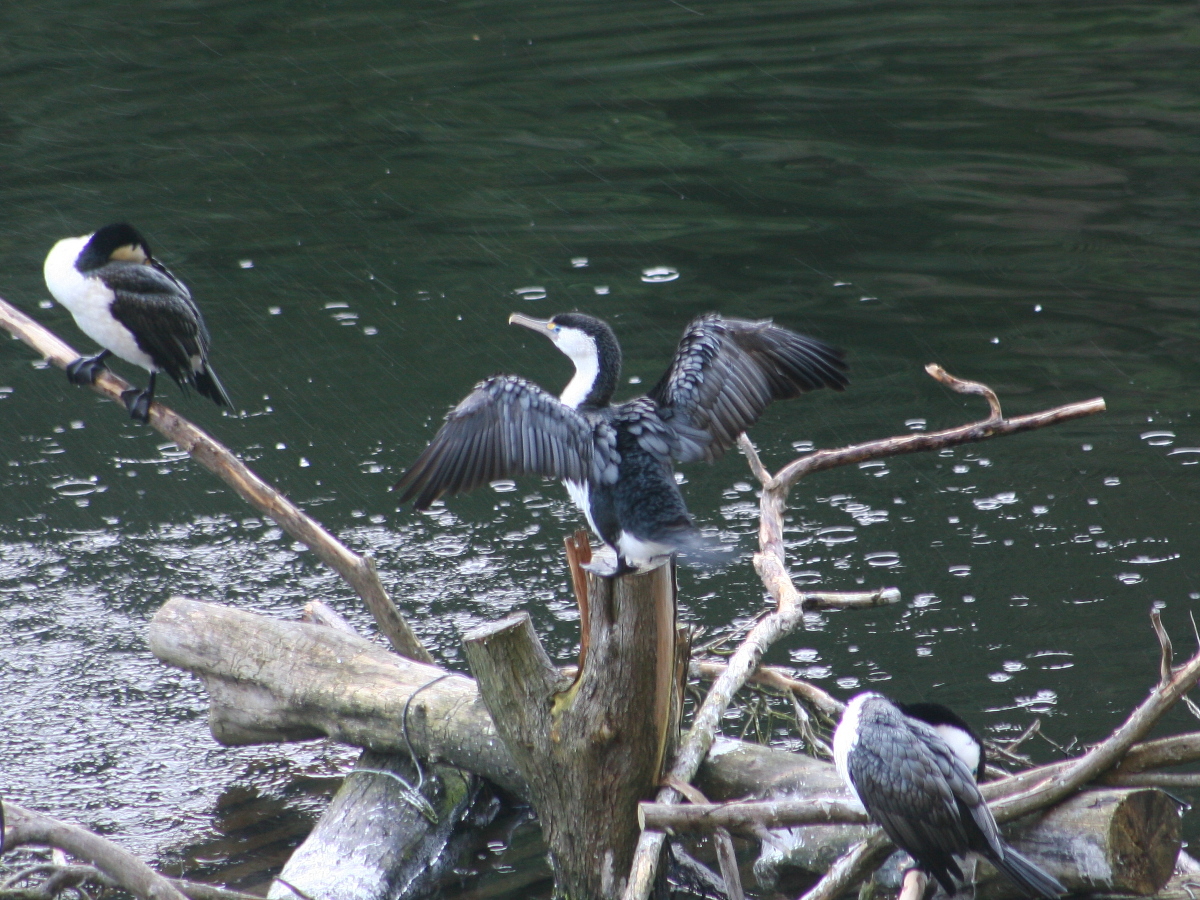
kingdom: Animalia
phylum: Chordata
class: Aves
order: Suliformes
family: Phalacrocoracidae
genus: Phalacrocorax
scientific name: Phalacrocorax varius
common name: Pied cormorant
